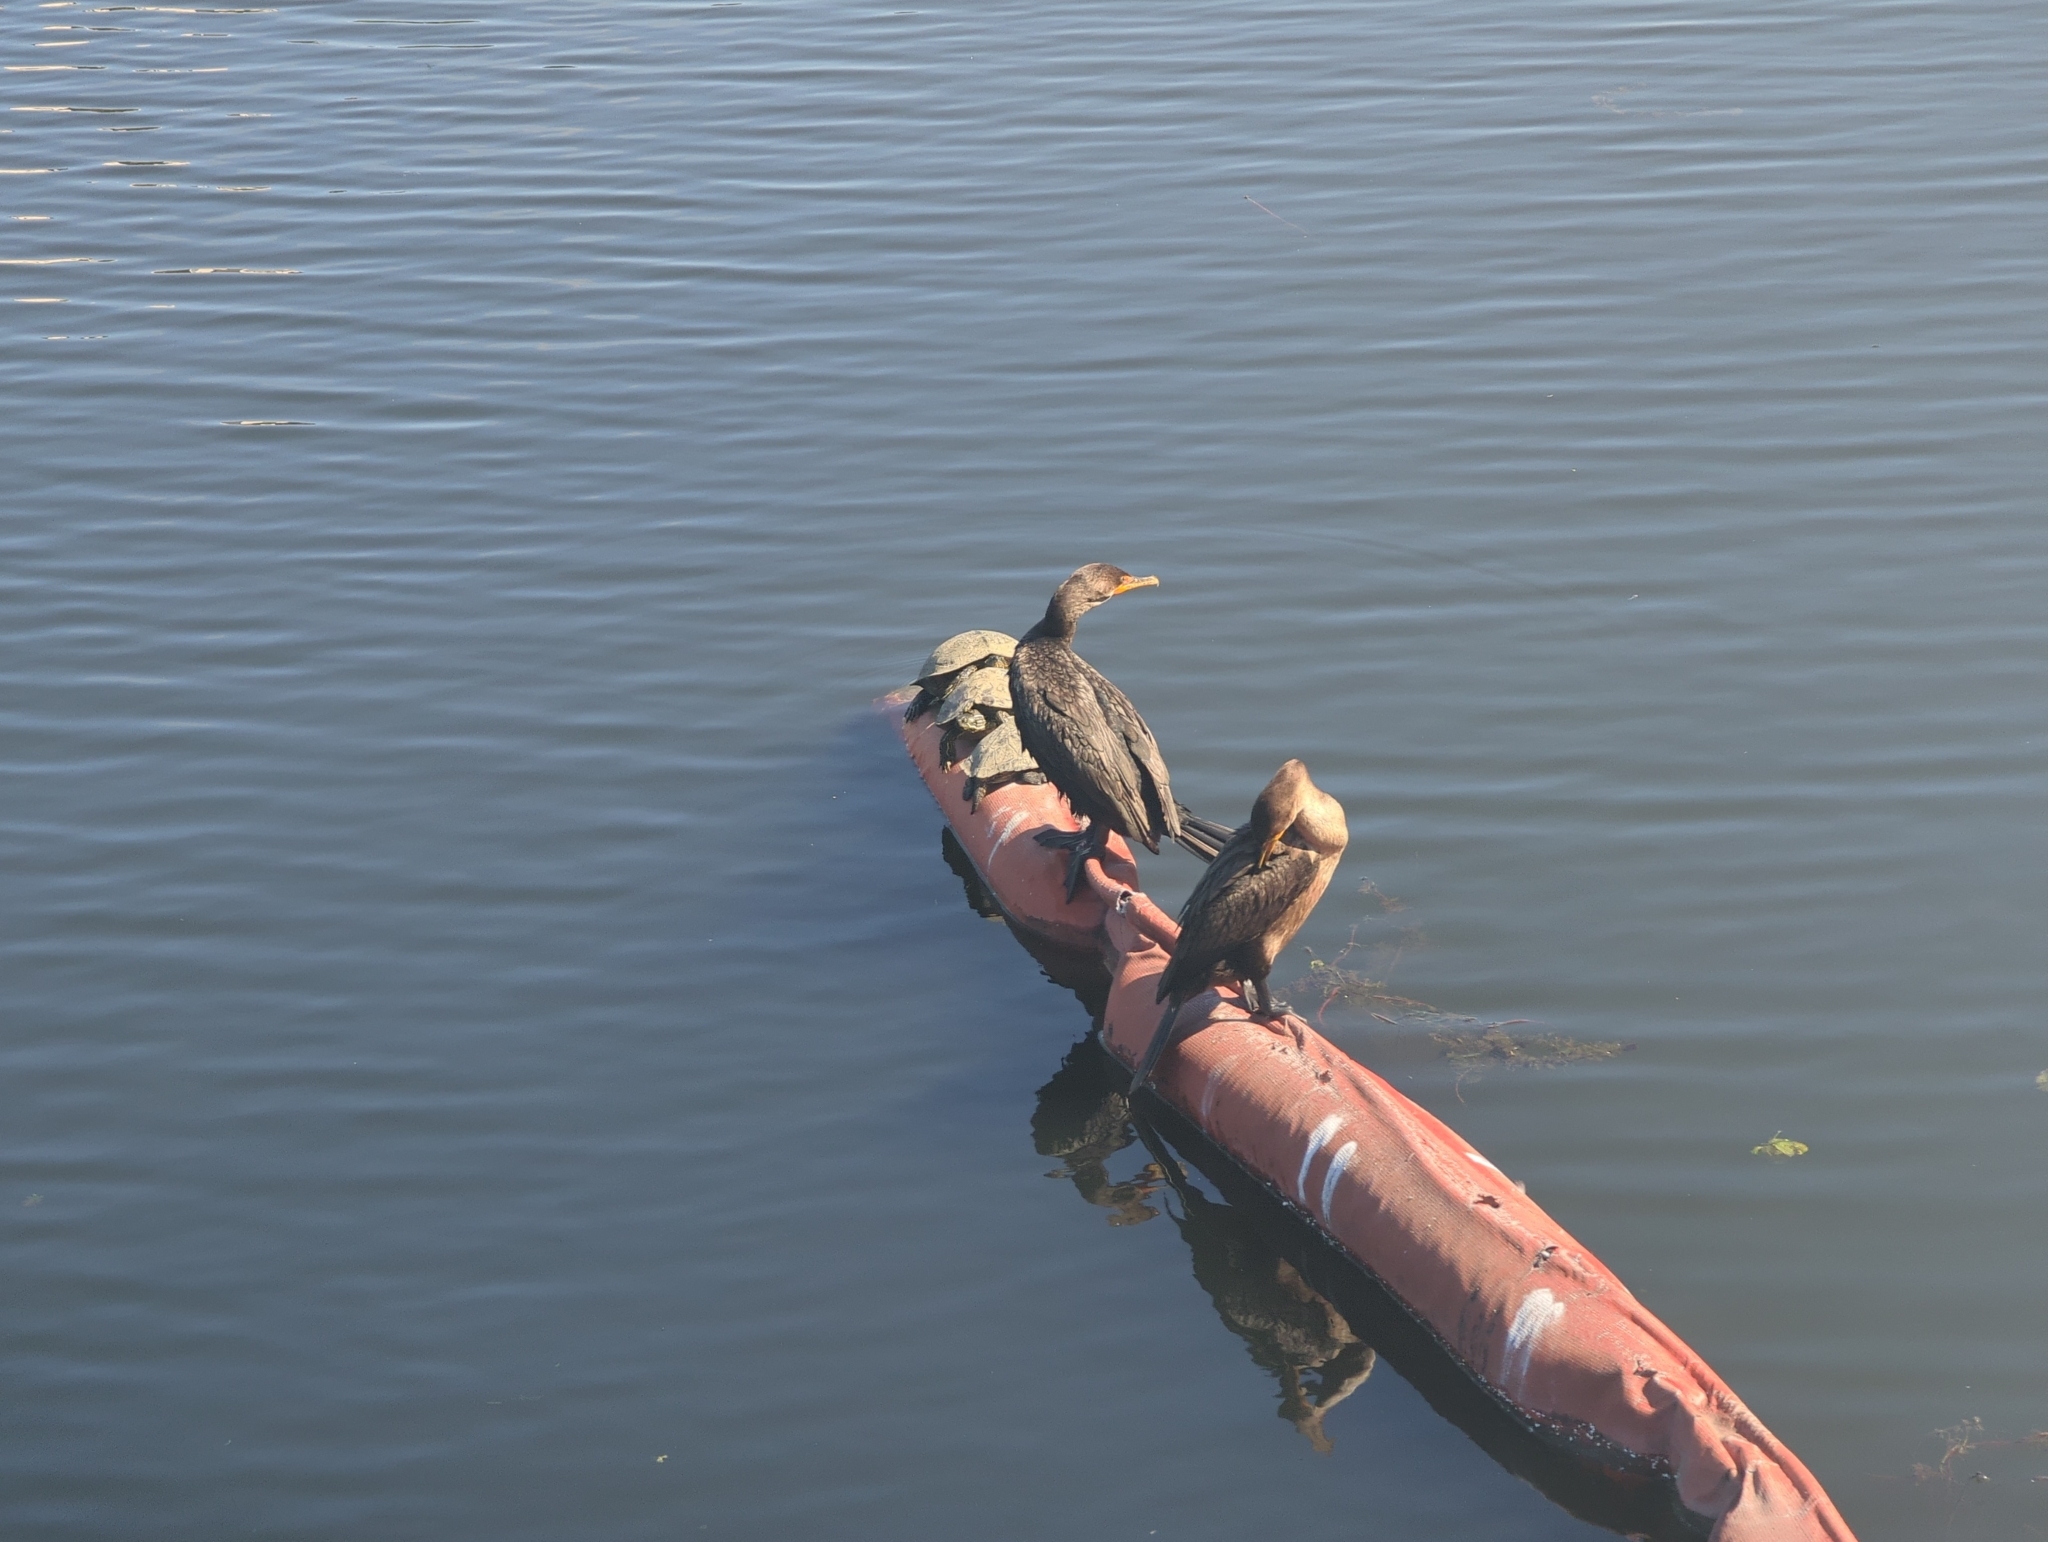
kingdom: Animalia
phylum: Chordata
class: Aves
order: Suliformes
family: Phalacrocoracidae
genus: Phalacrocorax
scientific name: Phalacrocorax auritus
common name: Double-crested cormorant
